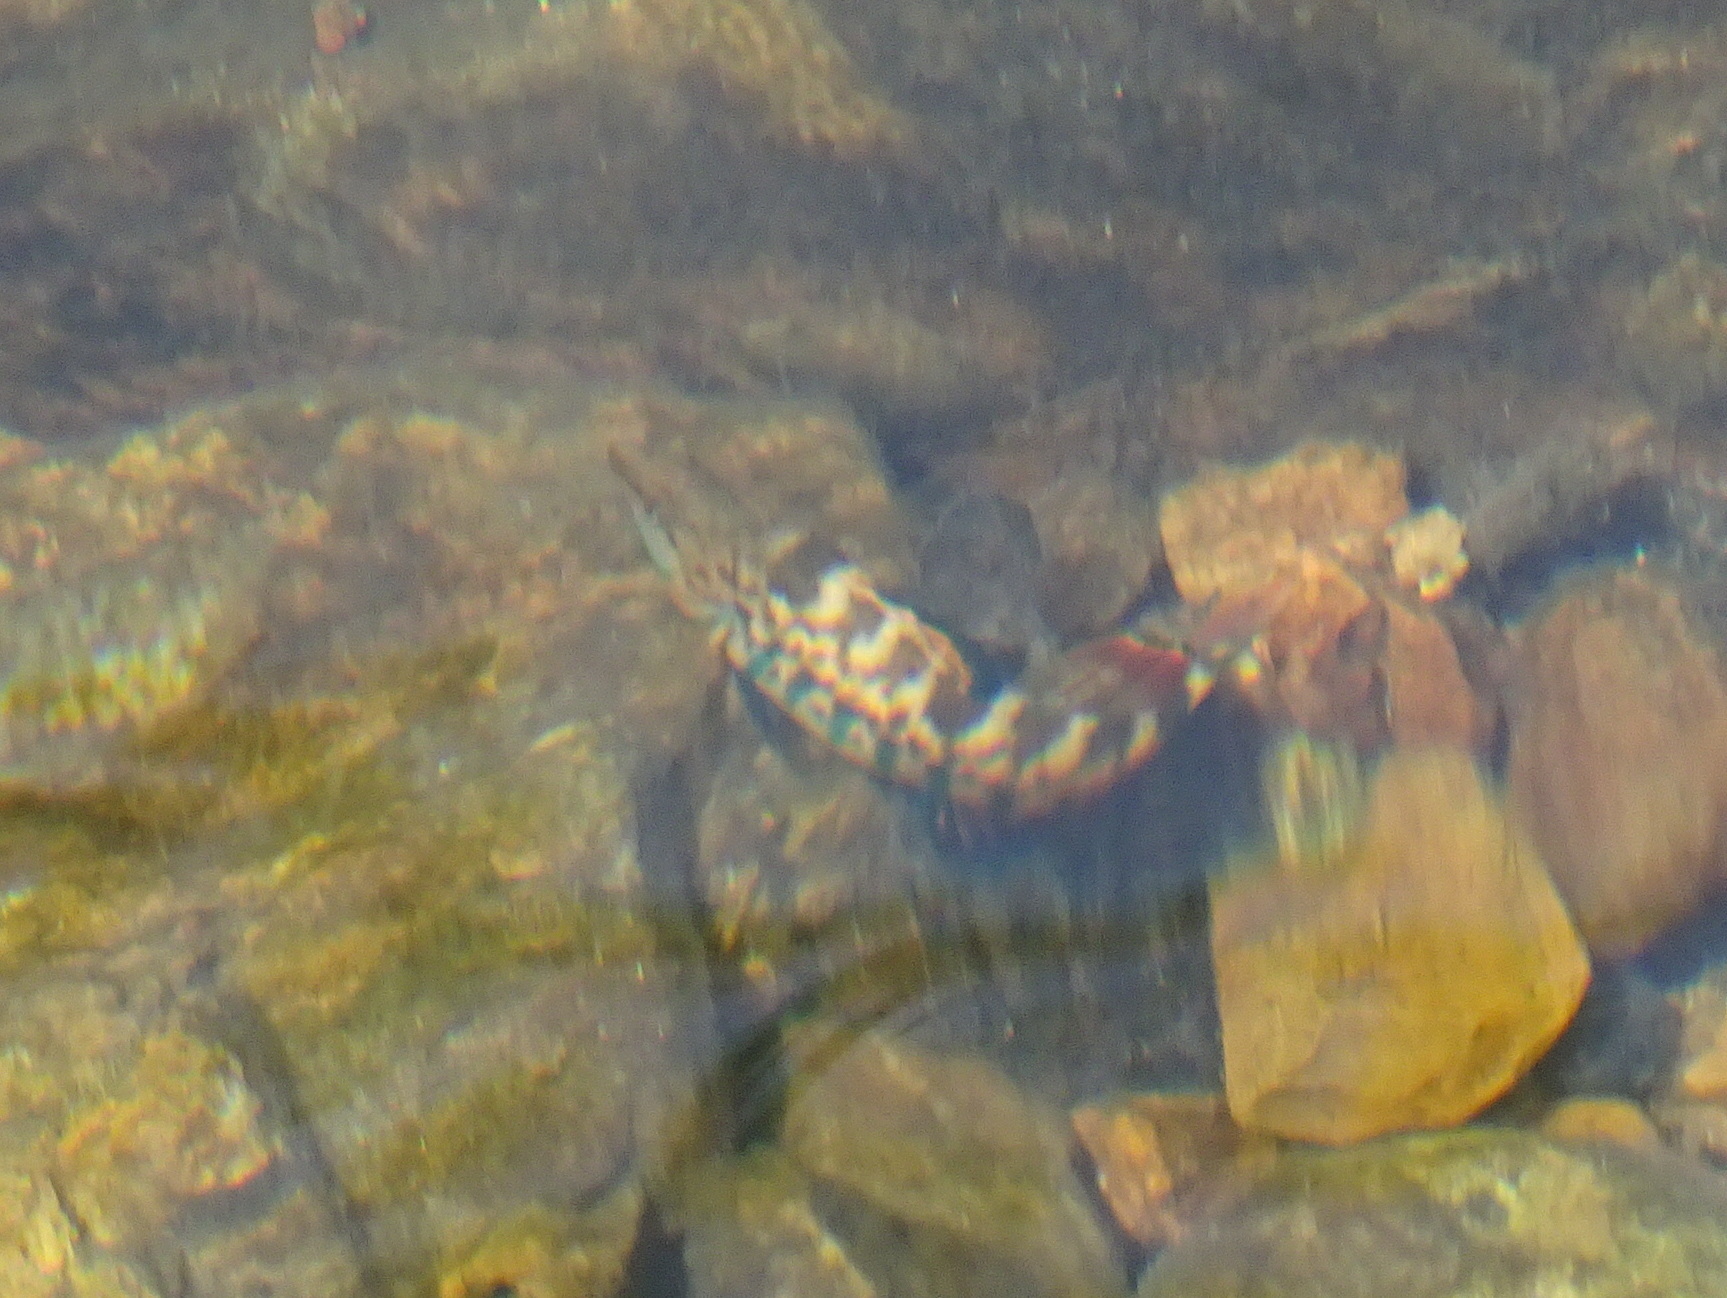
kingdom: Animalia
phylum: Chordata
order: Perciformes
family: Percidae
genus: Etheostoma
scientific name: Etheostoma caeruleum
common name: Rainbow darter
